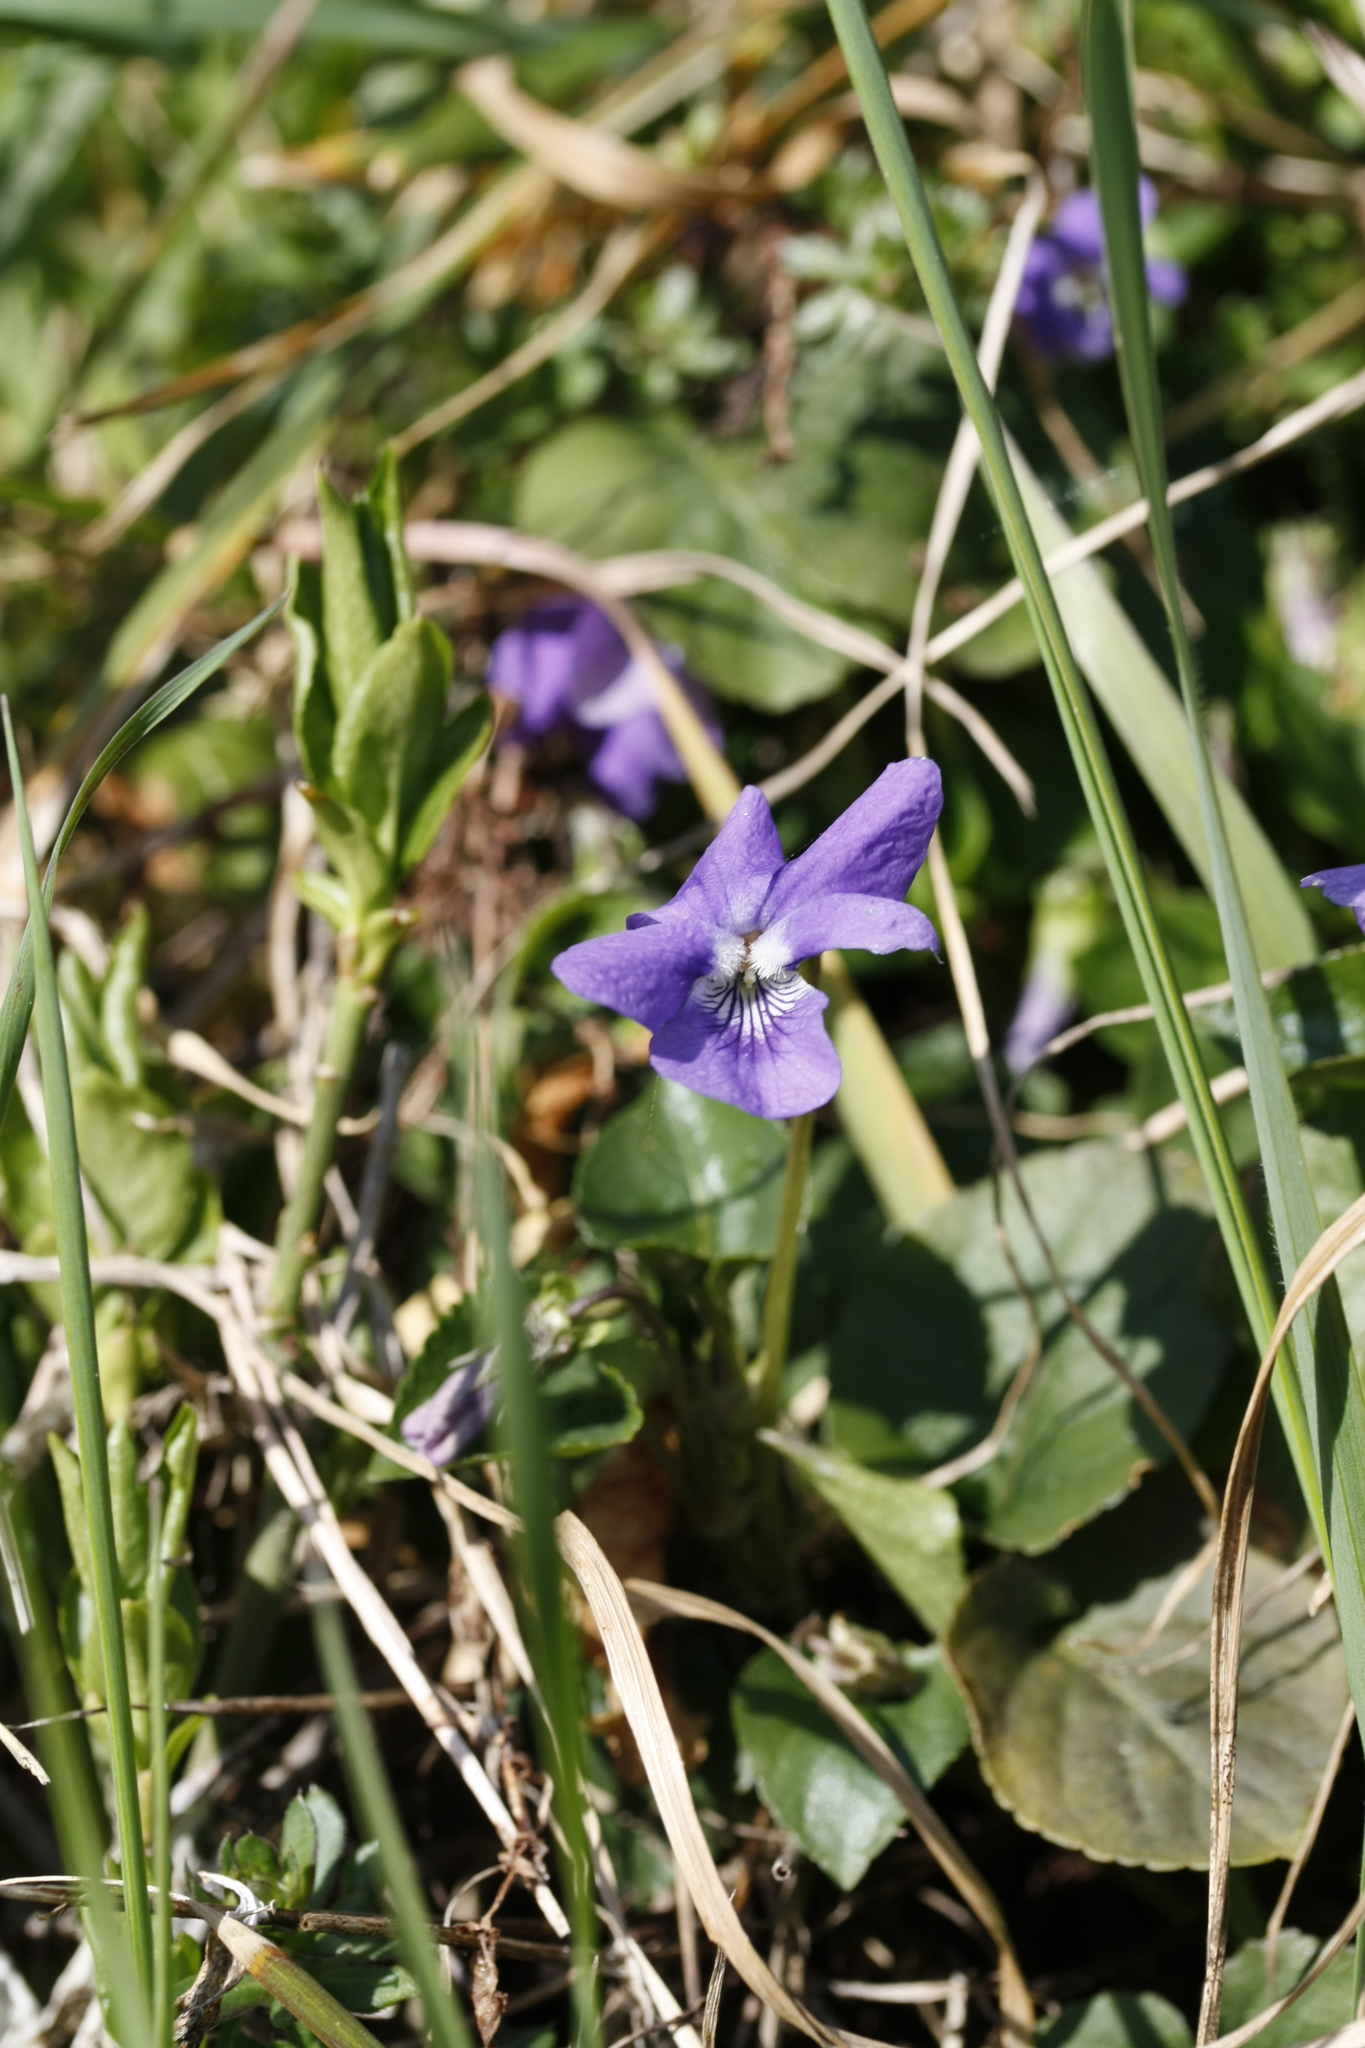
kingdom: Plantae
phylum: Tracheophyta
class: Magnoliopsida
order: Malpighiales
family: Violaceae
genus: Viola
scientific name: Viola riviniana
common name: Common dog-violet
